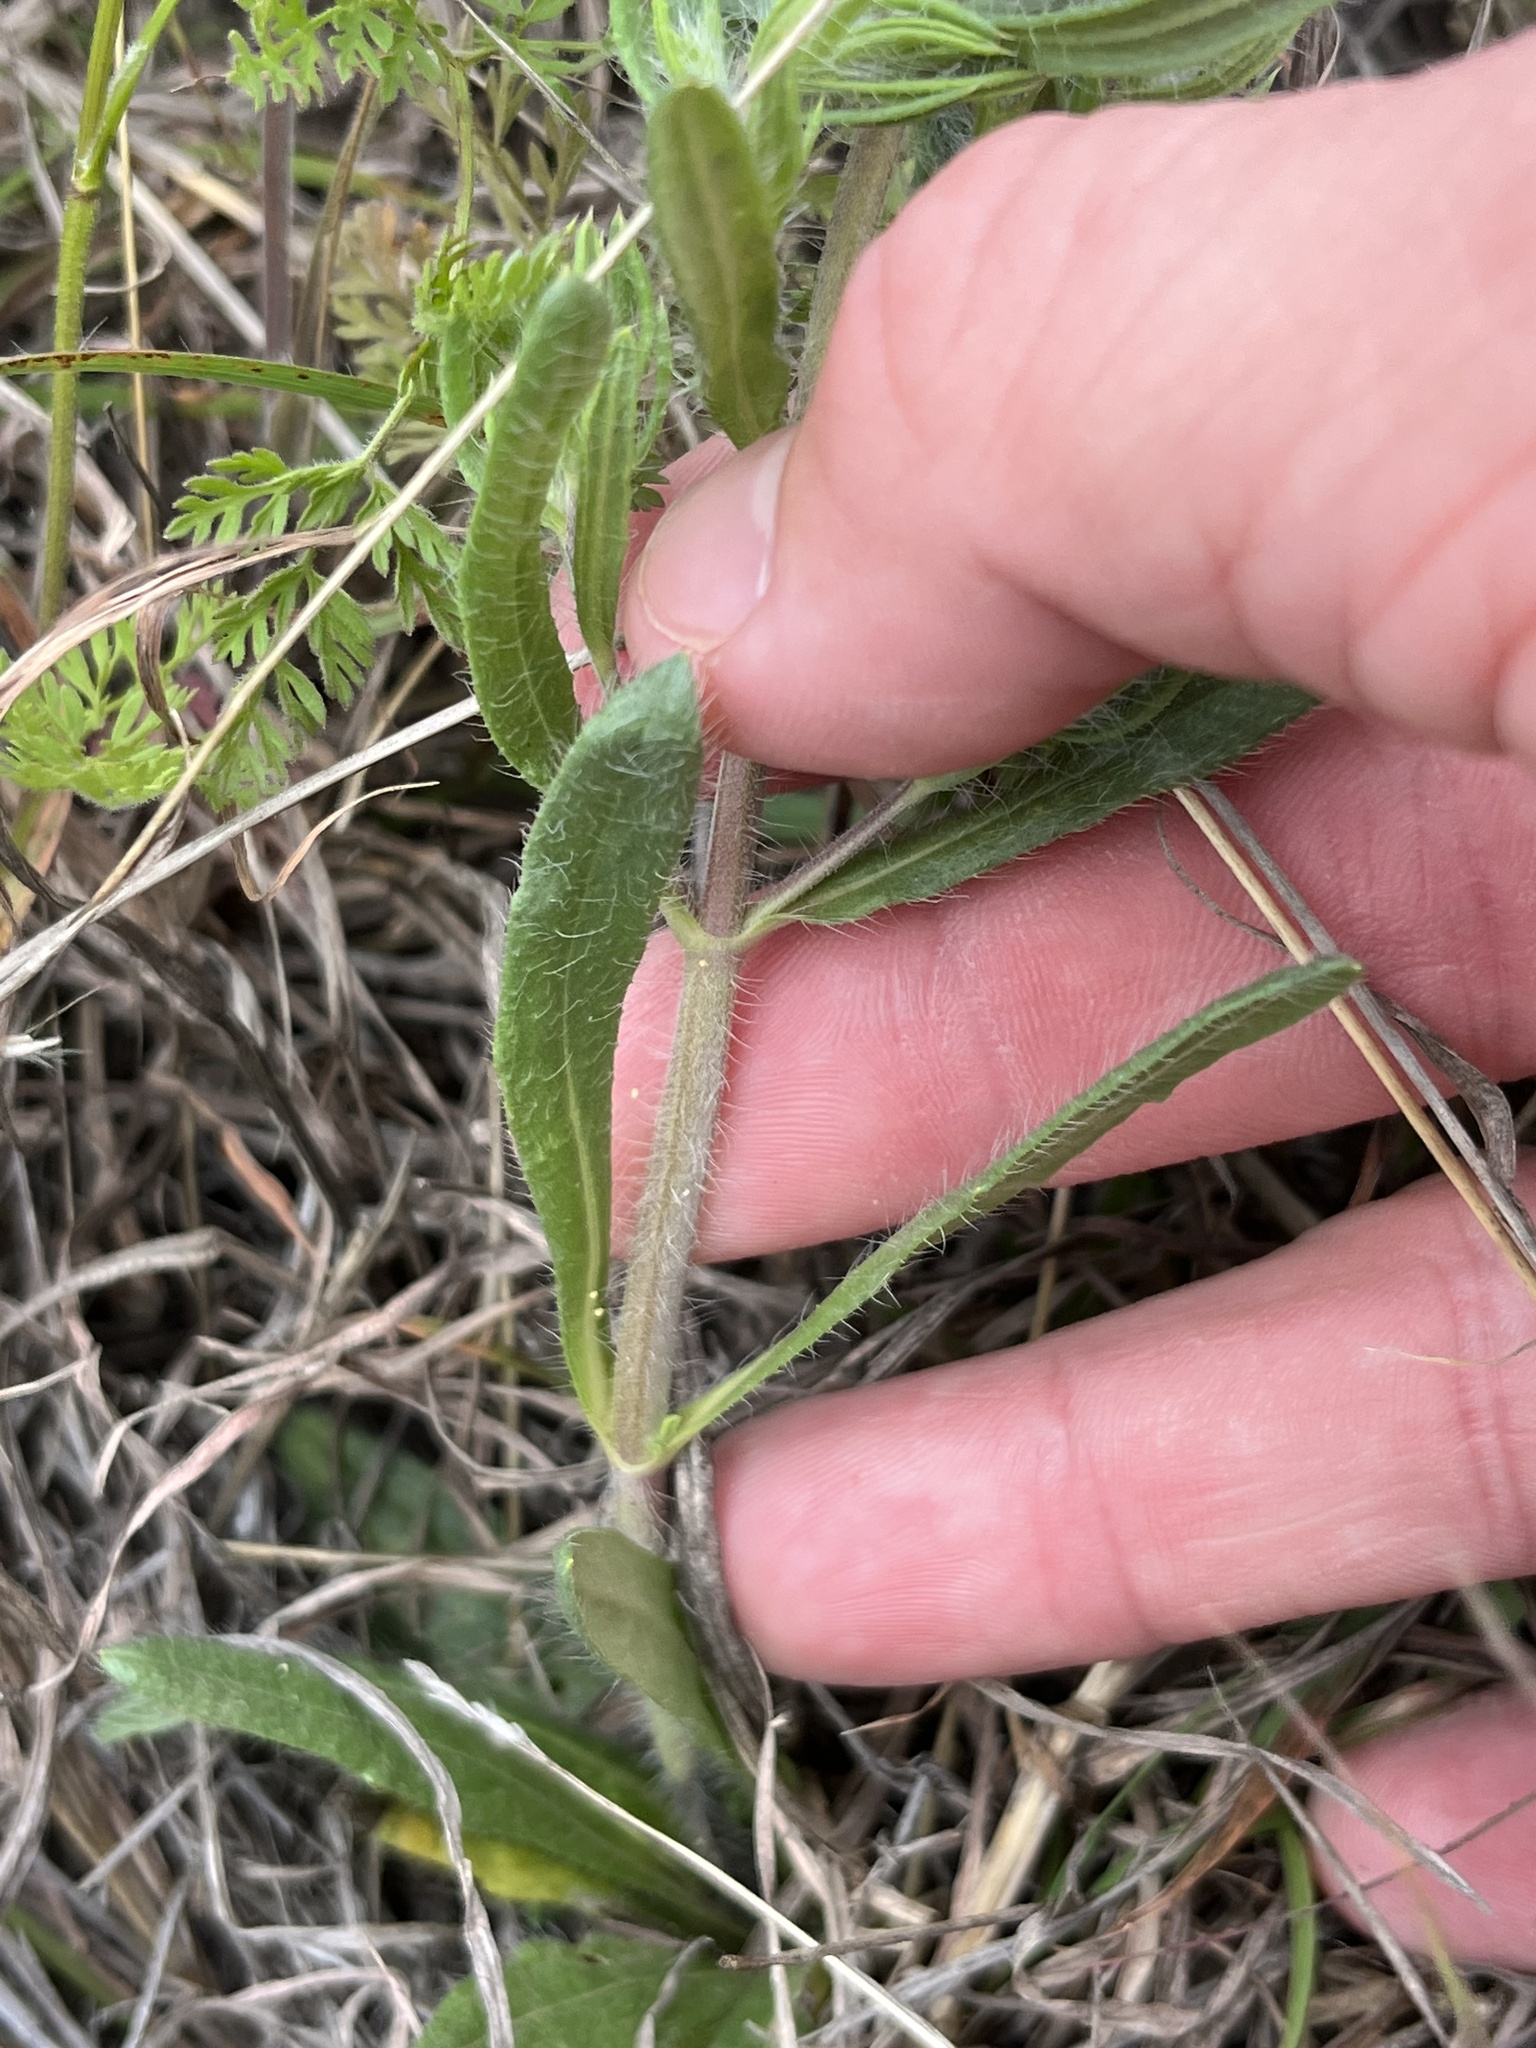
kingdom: Plantae
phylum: Tracheophyta
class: Magnoliopsida
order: Lamiales
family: Lamiaceae
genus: Salvia
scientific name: Salvia texana
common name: Texas sage
